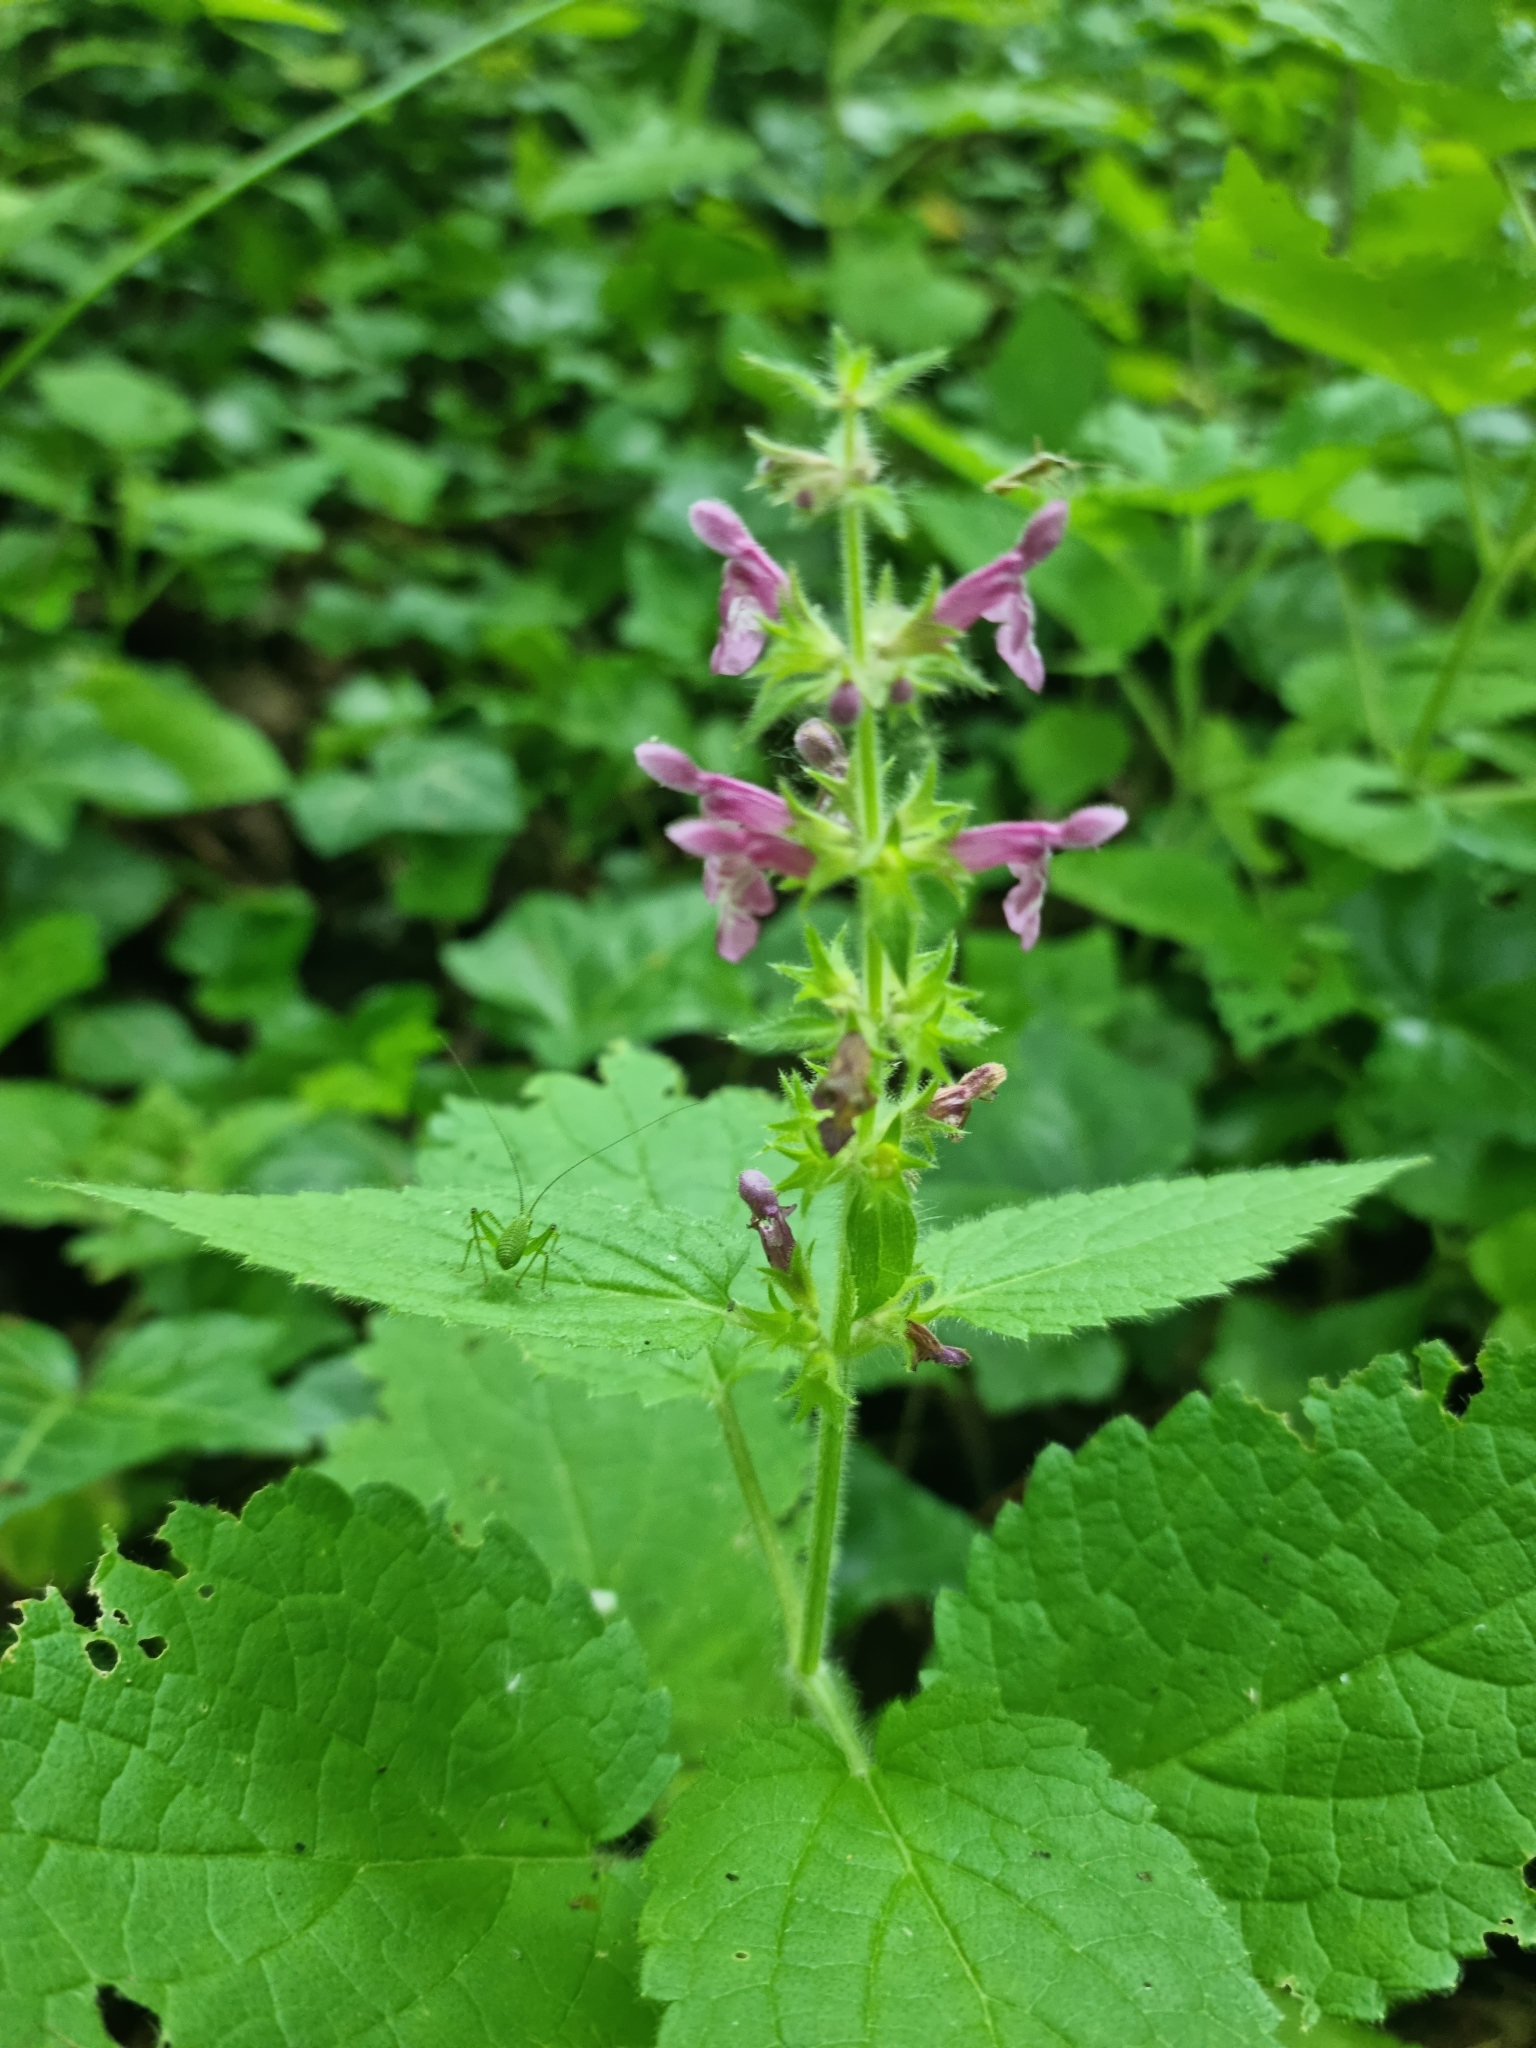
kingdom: Plantae
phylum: Tracheophyta
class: Magnoliopsida
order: Lamiales
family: Lamiaceae
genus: Stachys
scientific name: Stachys sylvatica
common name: Hedge woundwort
